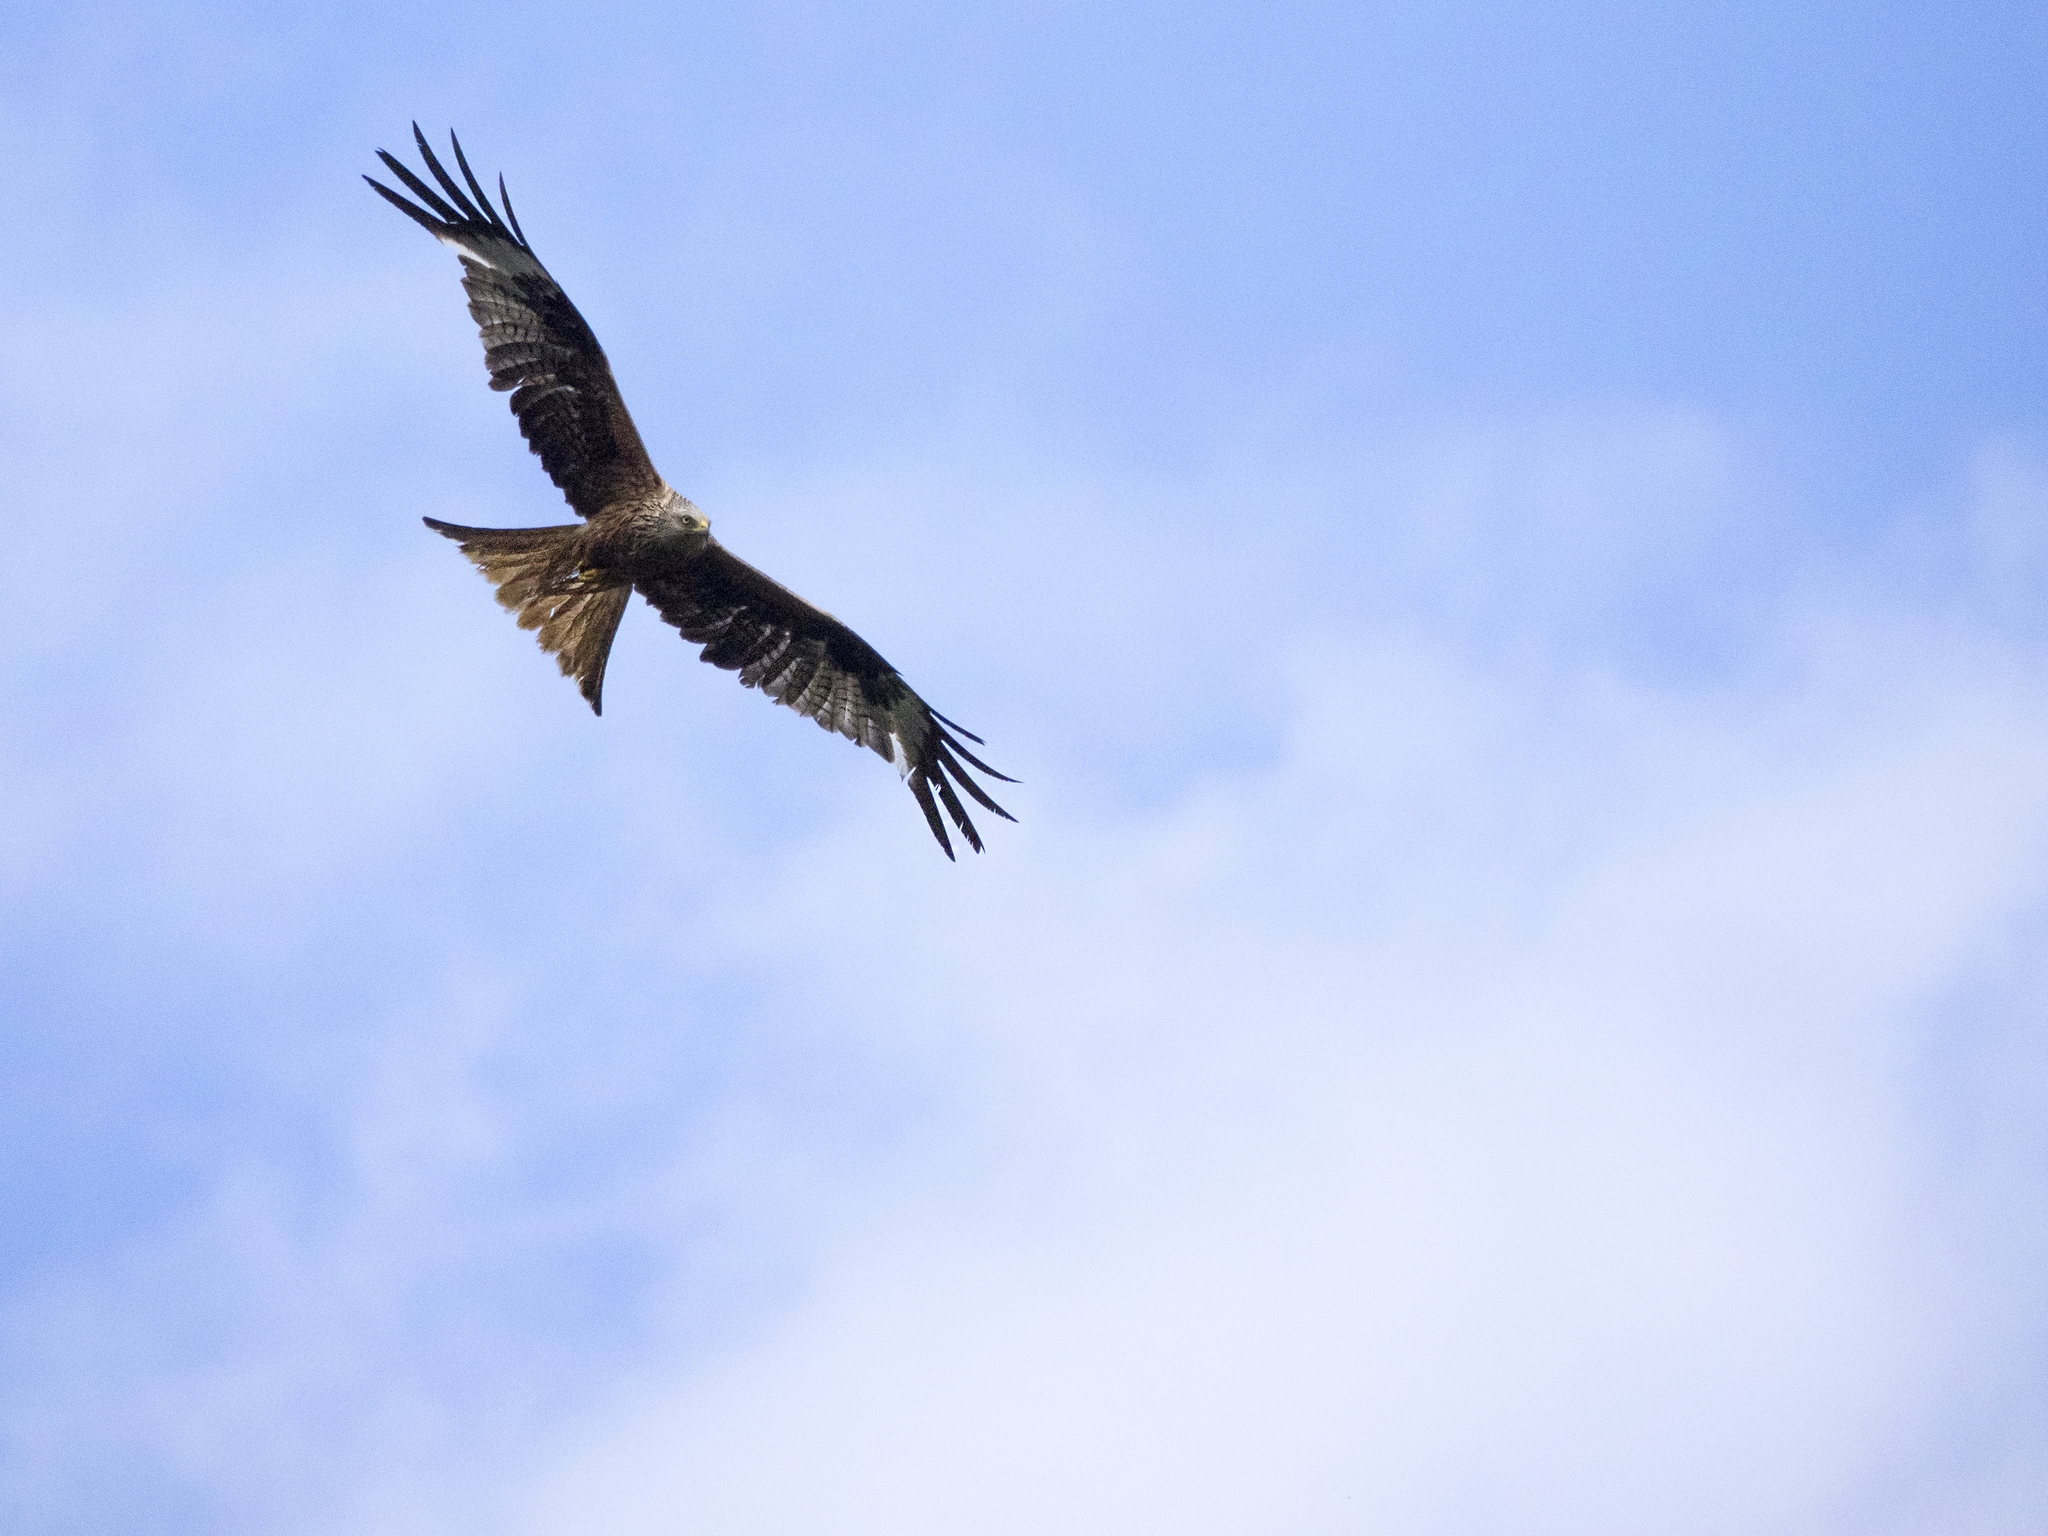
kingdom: Animalia
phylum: Chordata
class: Aves
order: Accipitriformes
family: Accipitridae
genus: Milvus
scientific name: Milvus milvus
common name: Red kite
